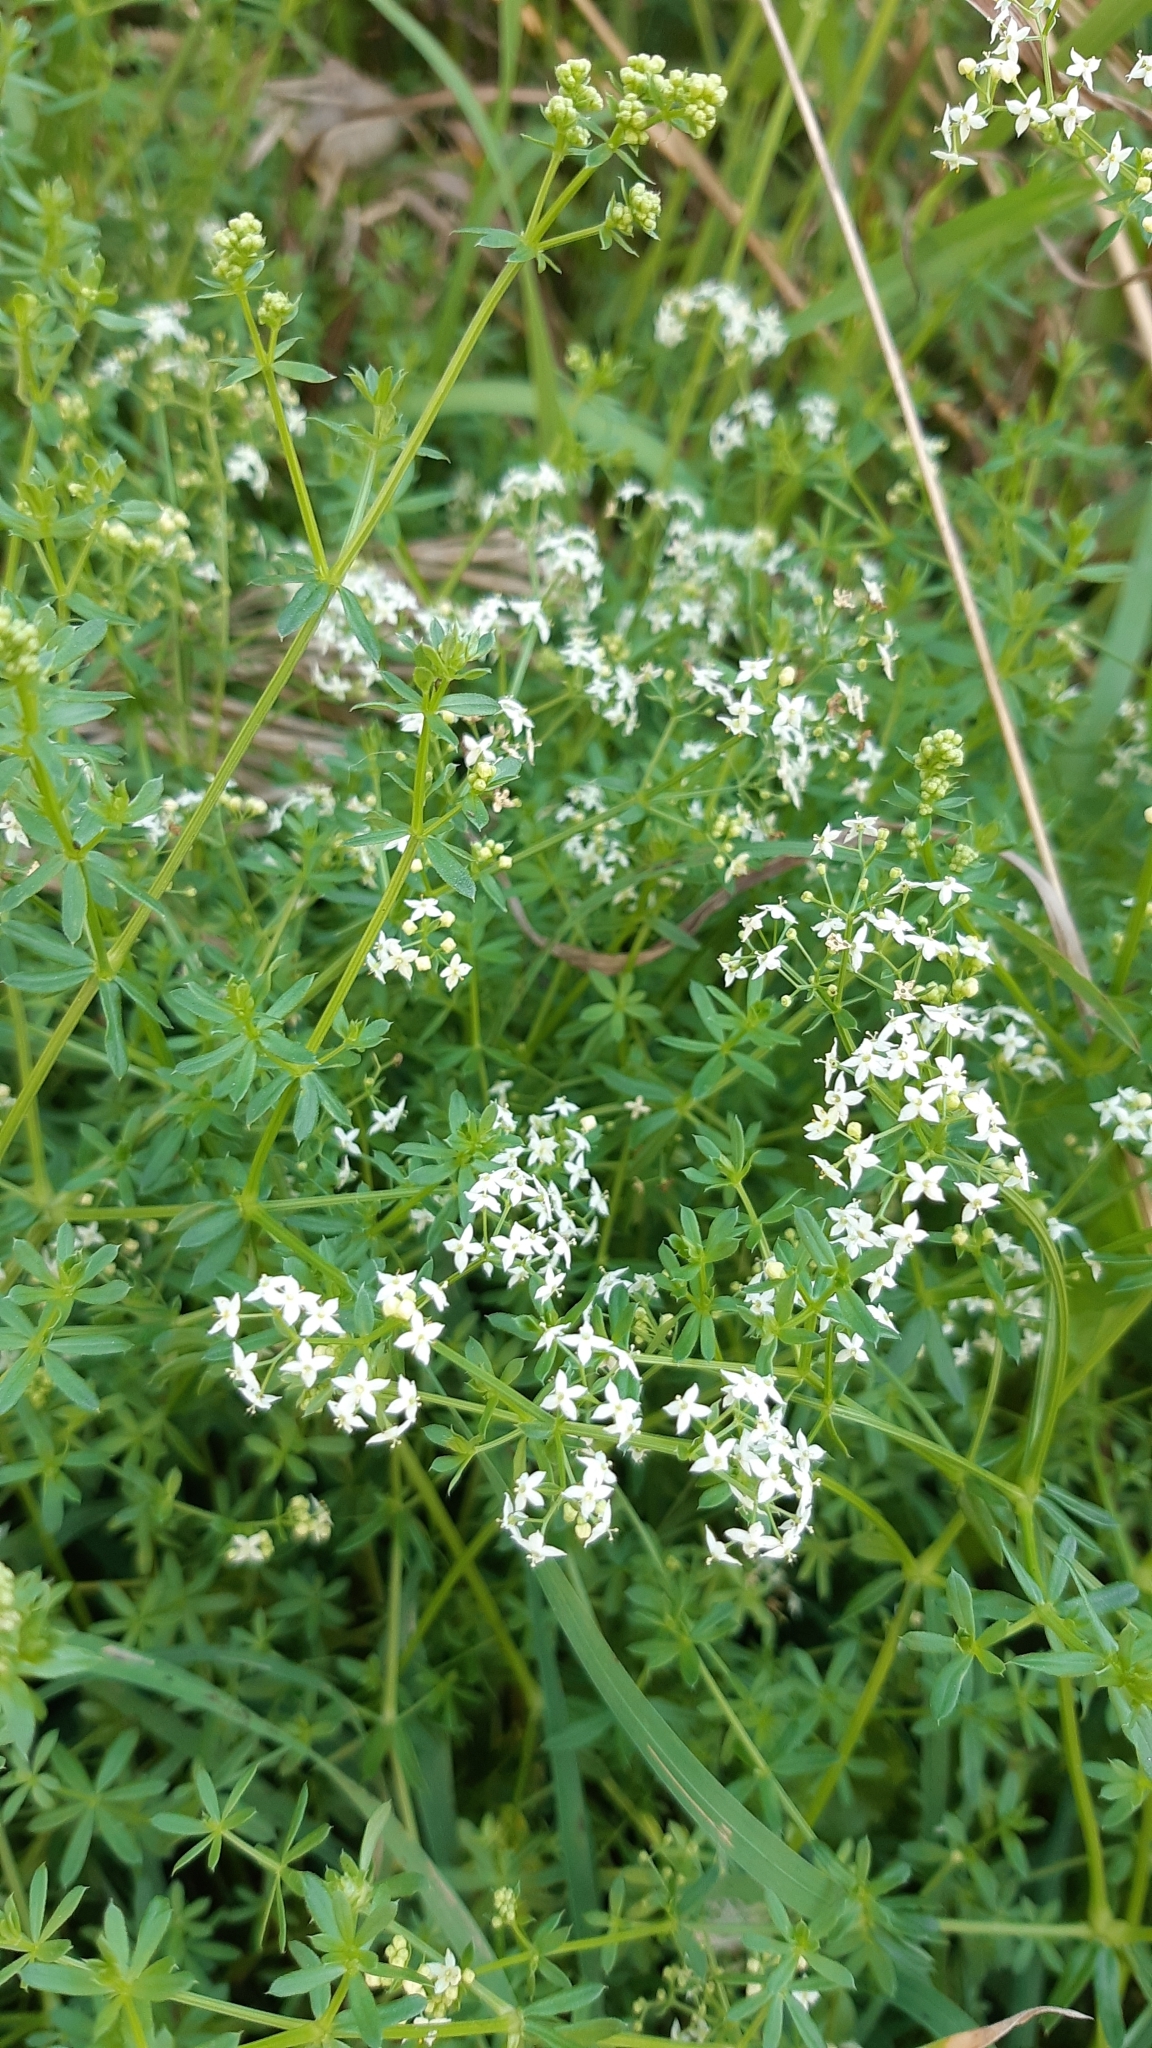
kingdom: Plantae
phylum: Tracheophyta
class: Magnoliopsida
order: Gentianales
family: Rubiaceae
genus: Galium
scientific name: Galium mollugo
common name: Hedge bedstraw
